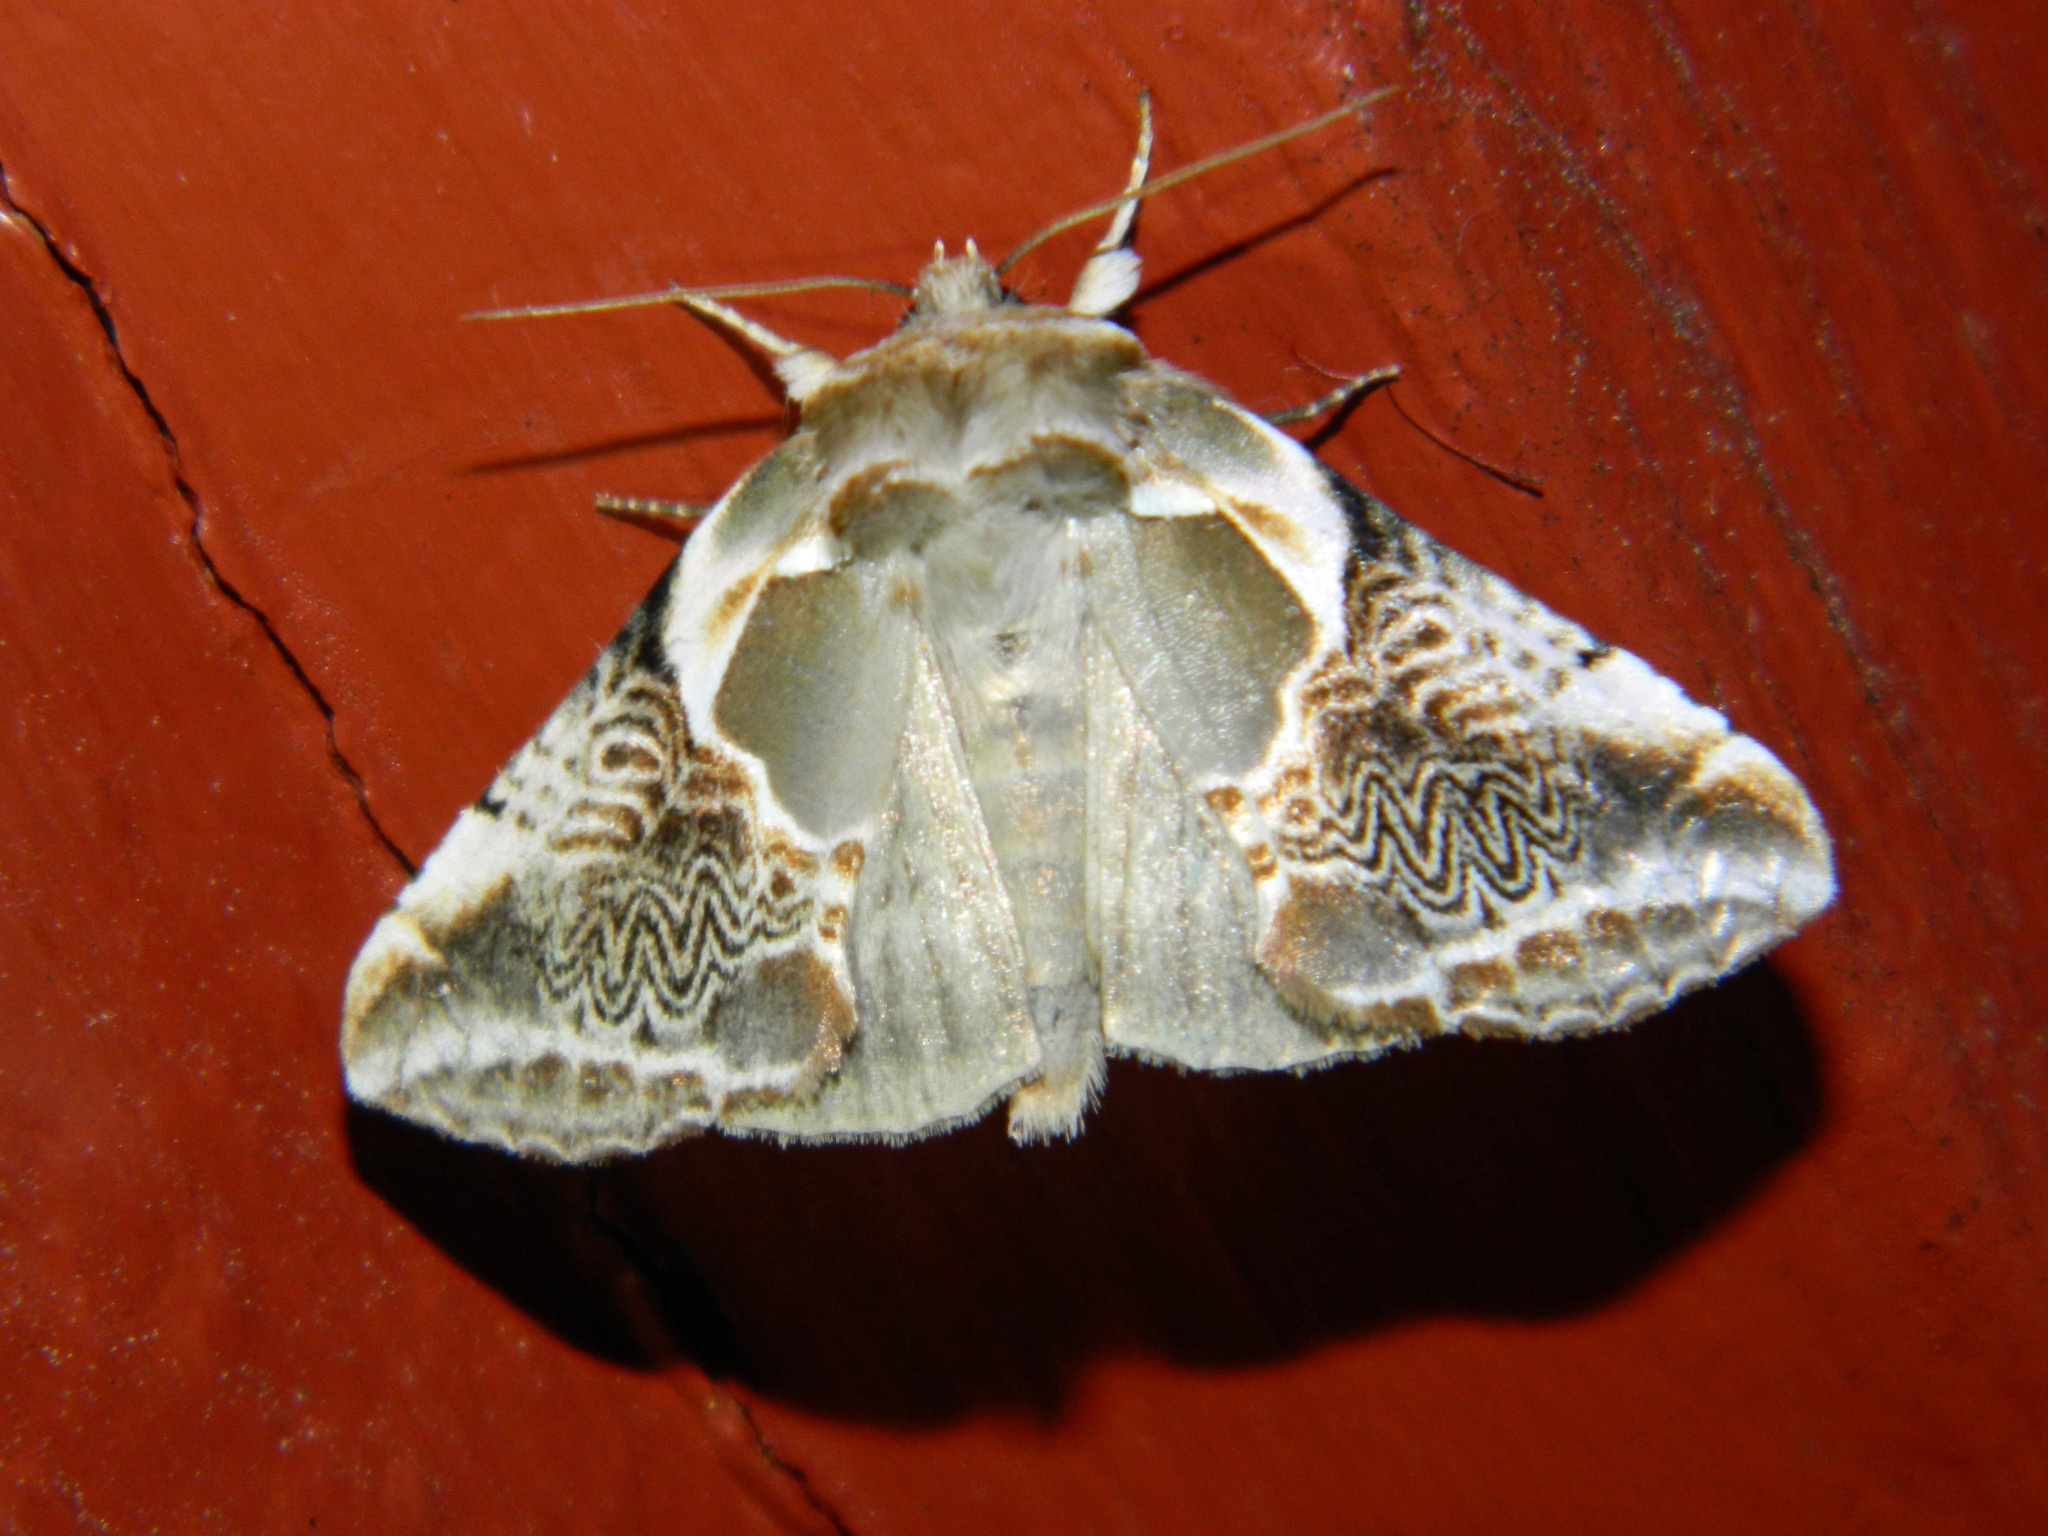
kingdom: Animalia
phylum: Arthropoda
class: Insecta
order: Lepidoptera
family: Drepanidae
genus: Habrosyne
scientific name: Habrosyne scripta
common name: Lettered habrosyne moth
